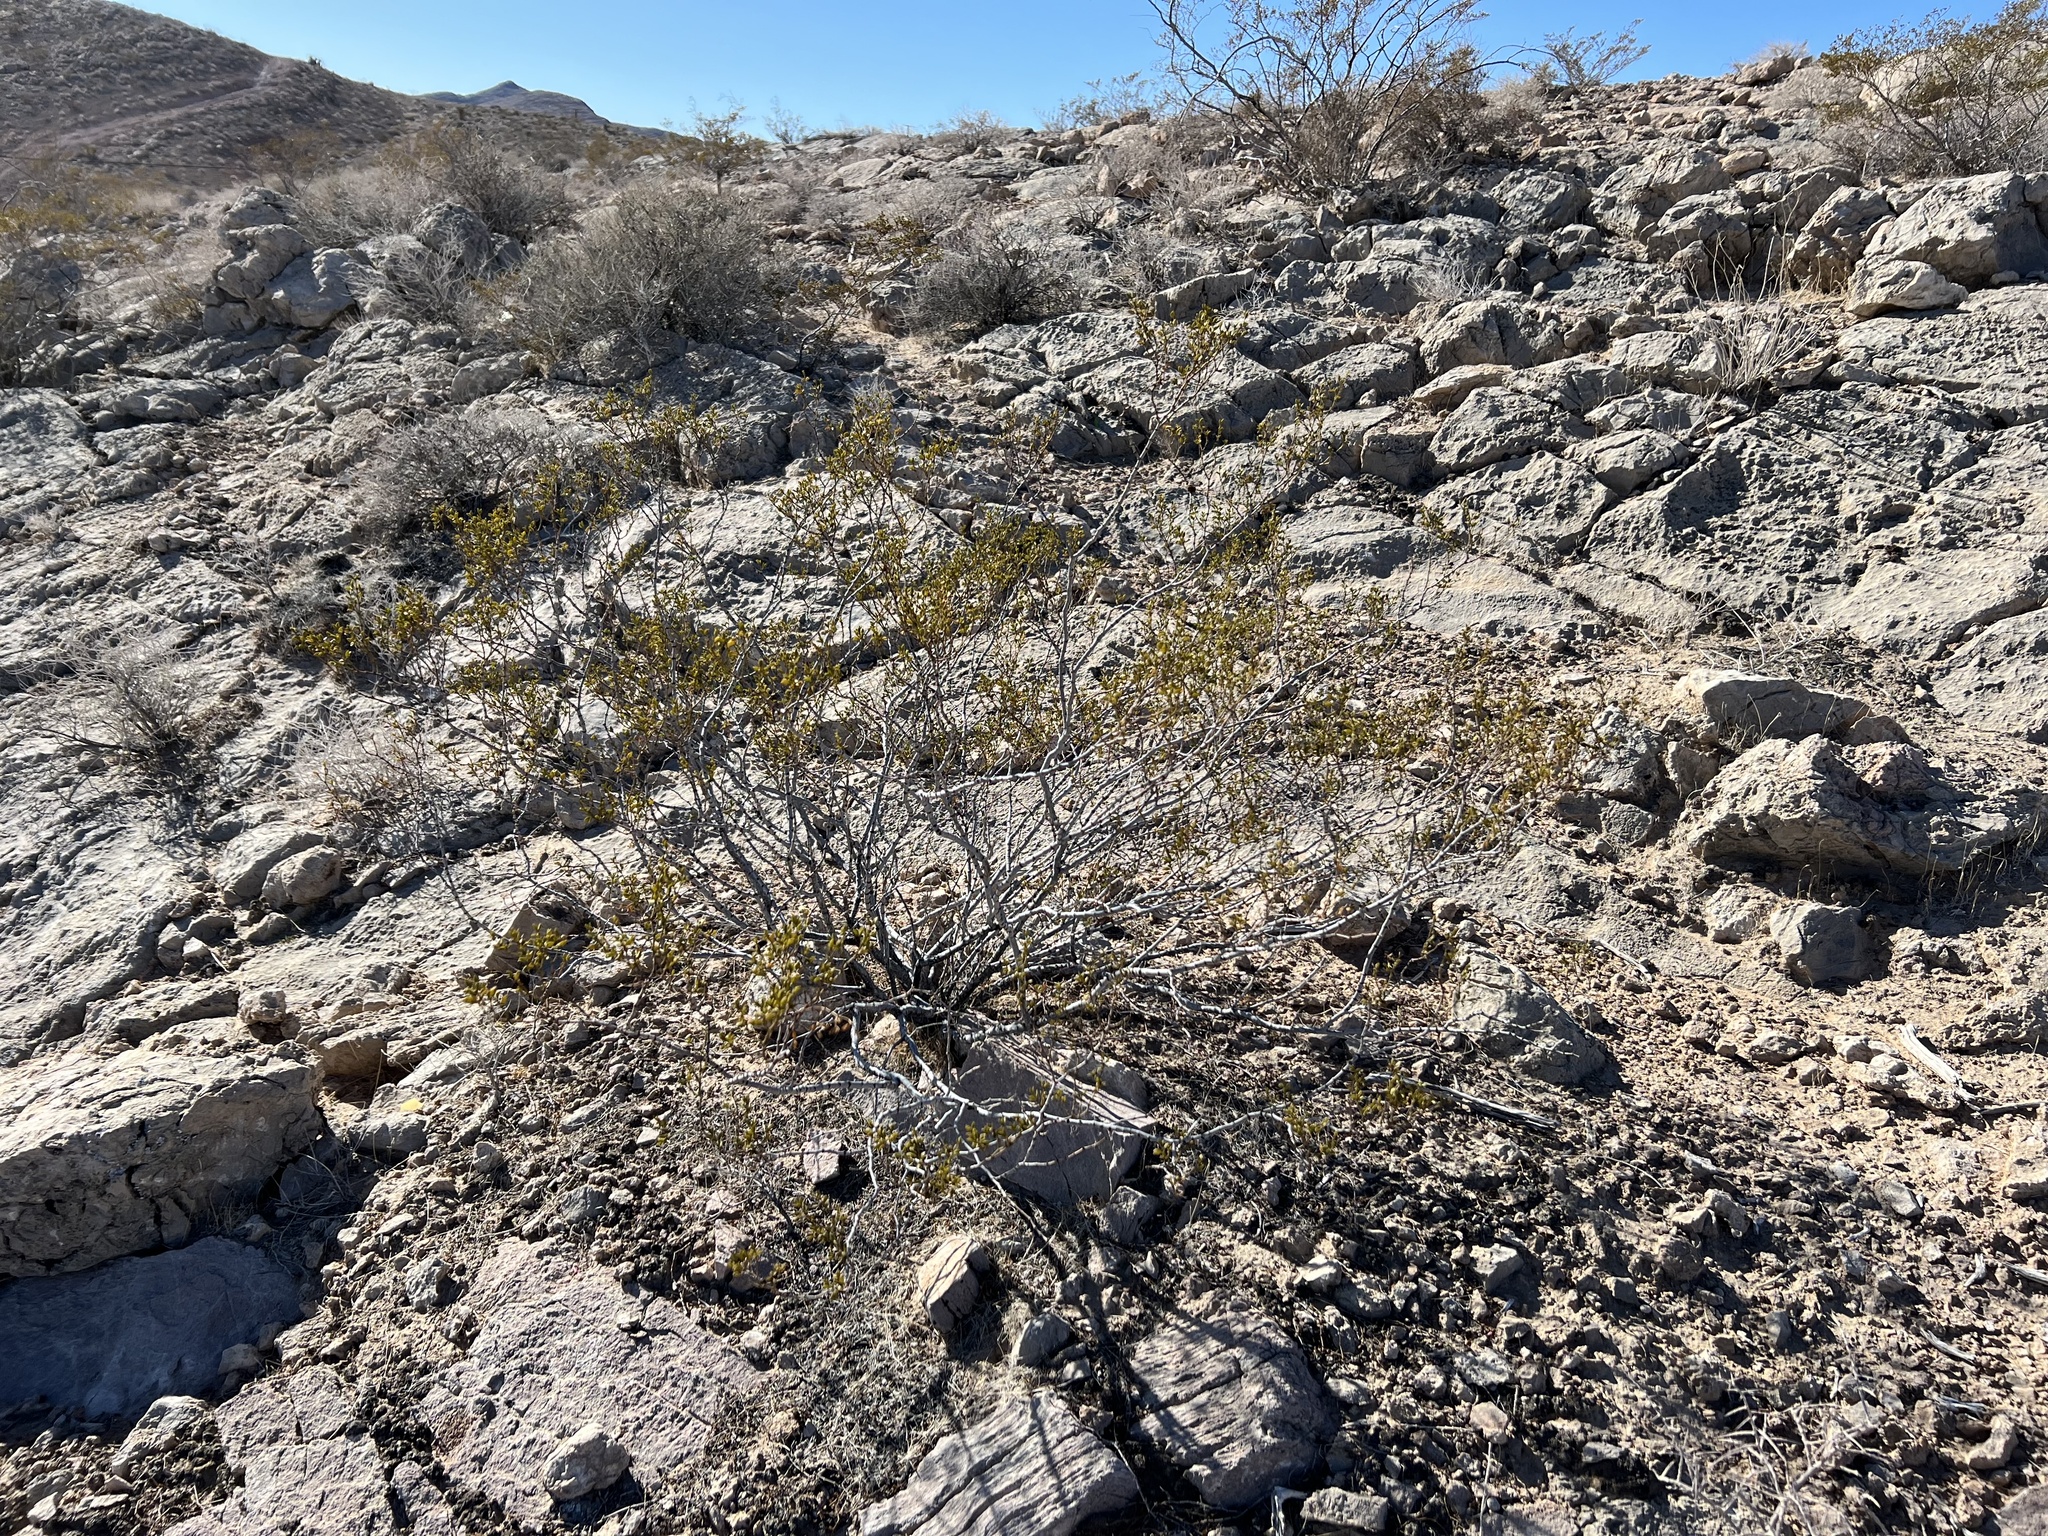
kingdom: Plantae
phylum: Tracheophyta
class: Magnoliopsida
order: Zygophyllales
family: Zygophyllaceae
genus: Larrea
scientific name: Larrea tridentata
